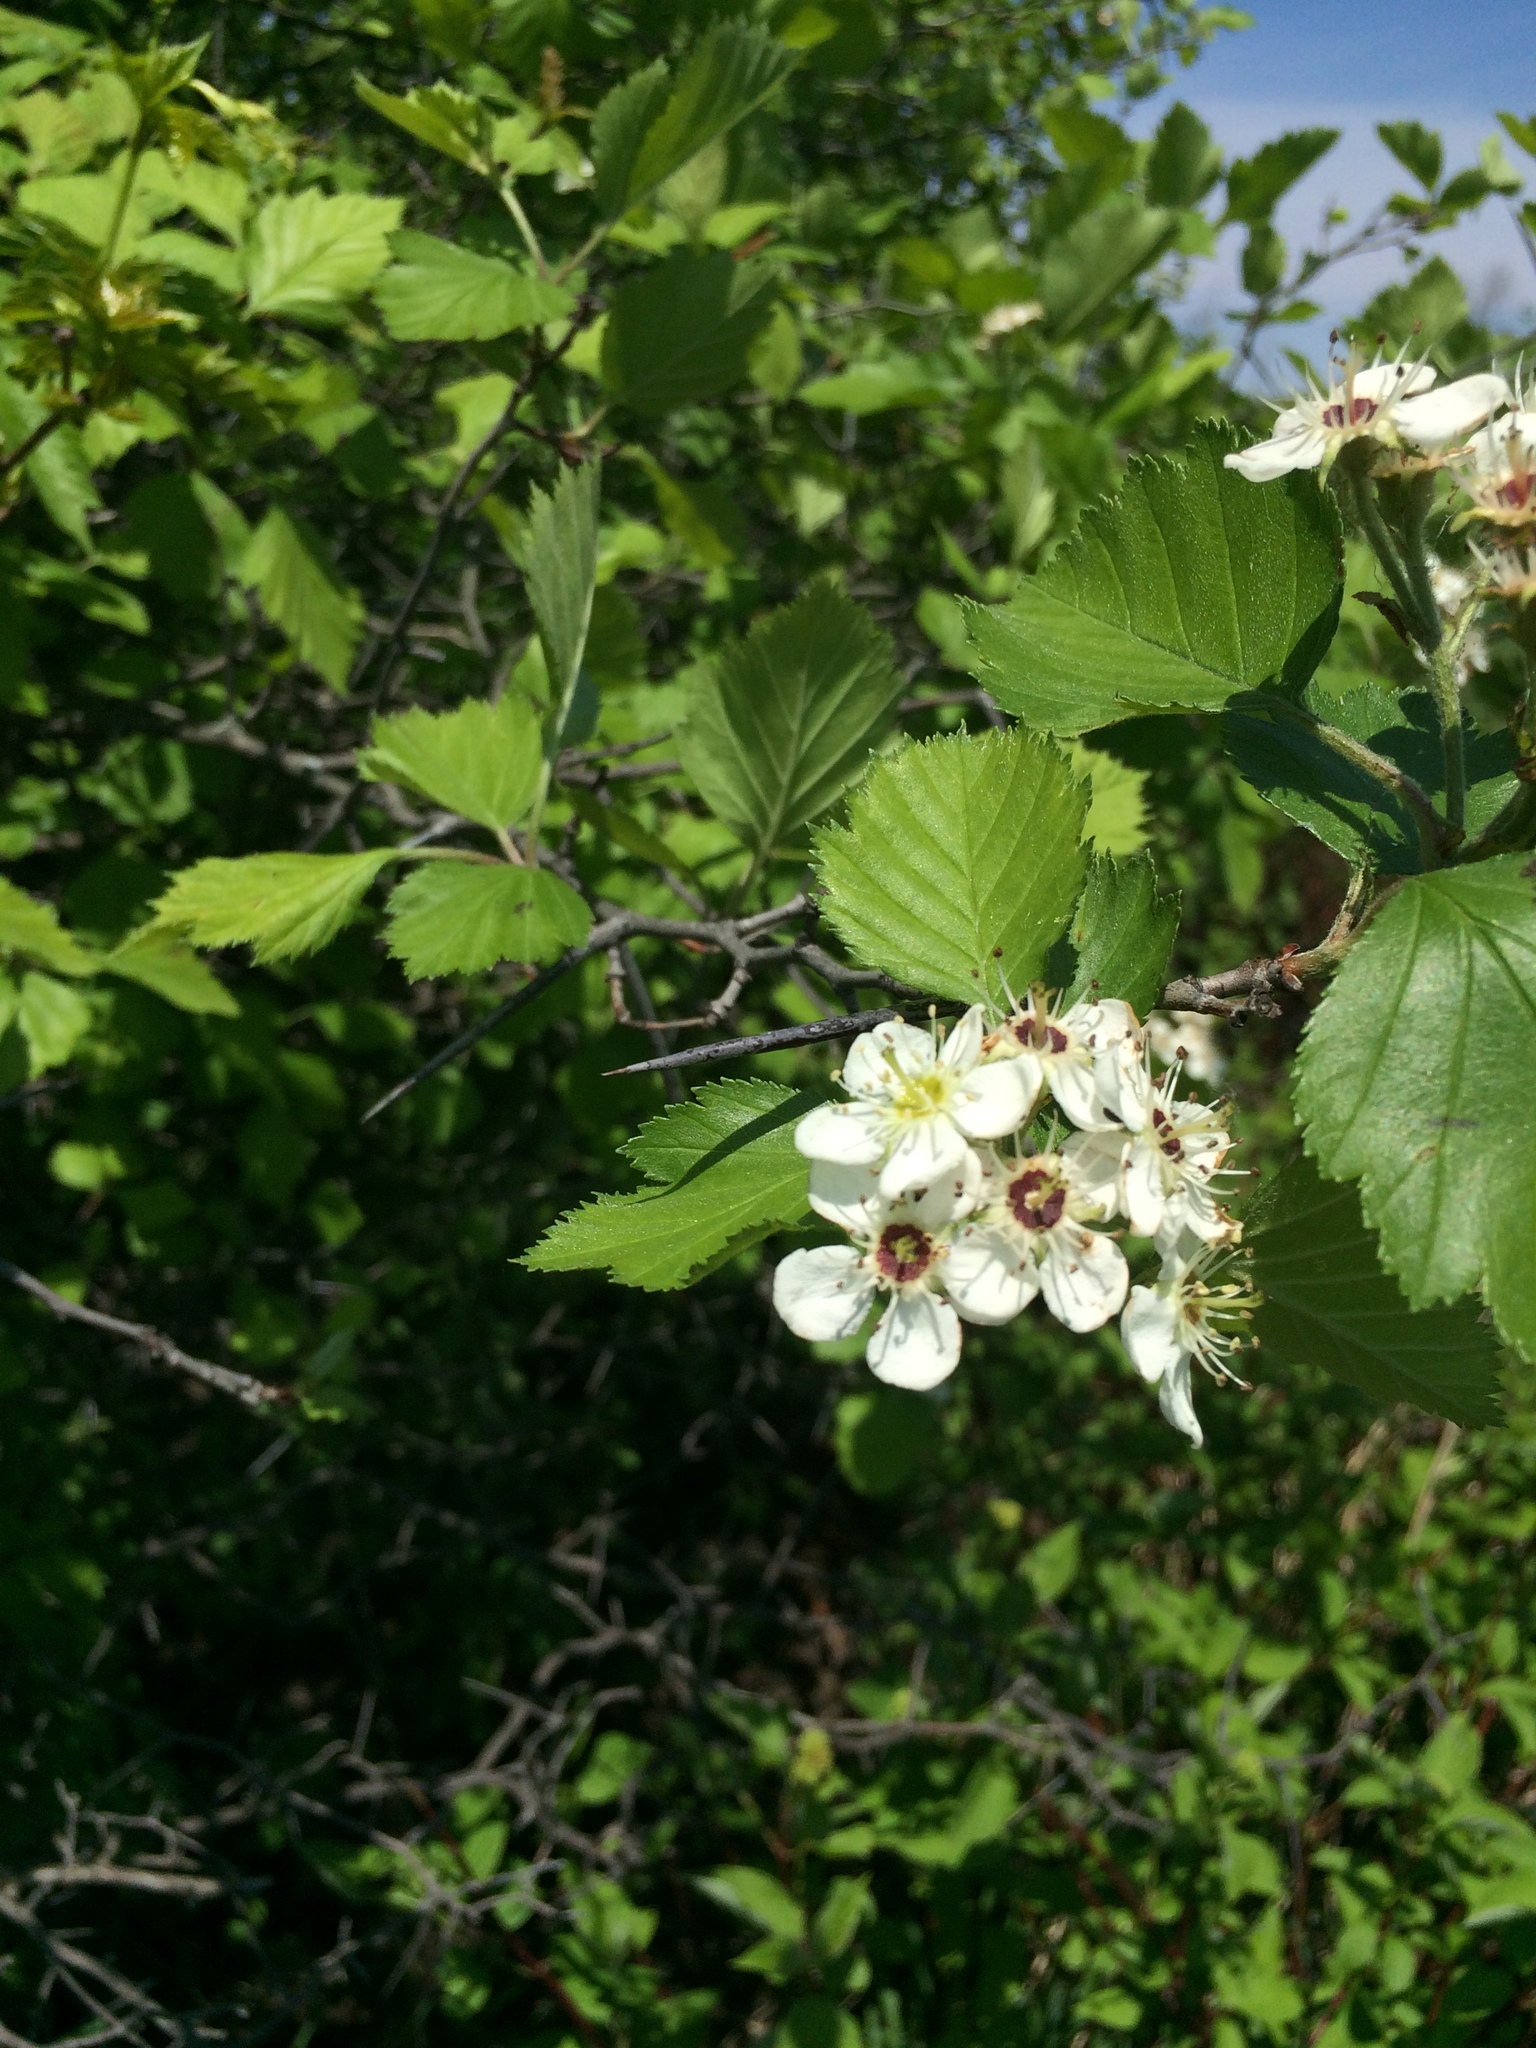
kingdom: Plantae
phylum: Tracheophyta
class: Magnoliopsida
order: Rosales
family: Rosaceae
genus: Crataegus
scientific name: Crataegus submollis
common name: Hairy cockspurthorn
